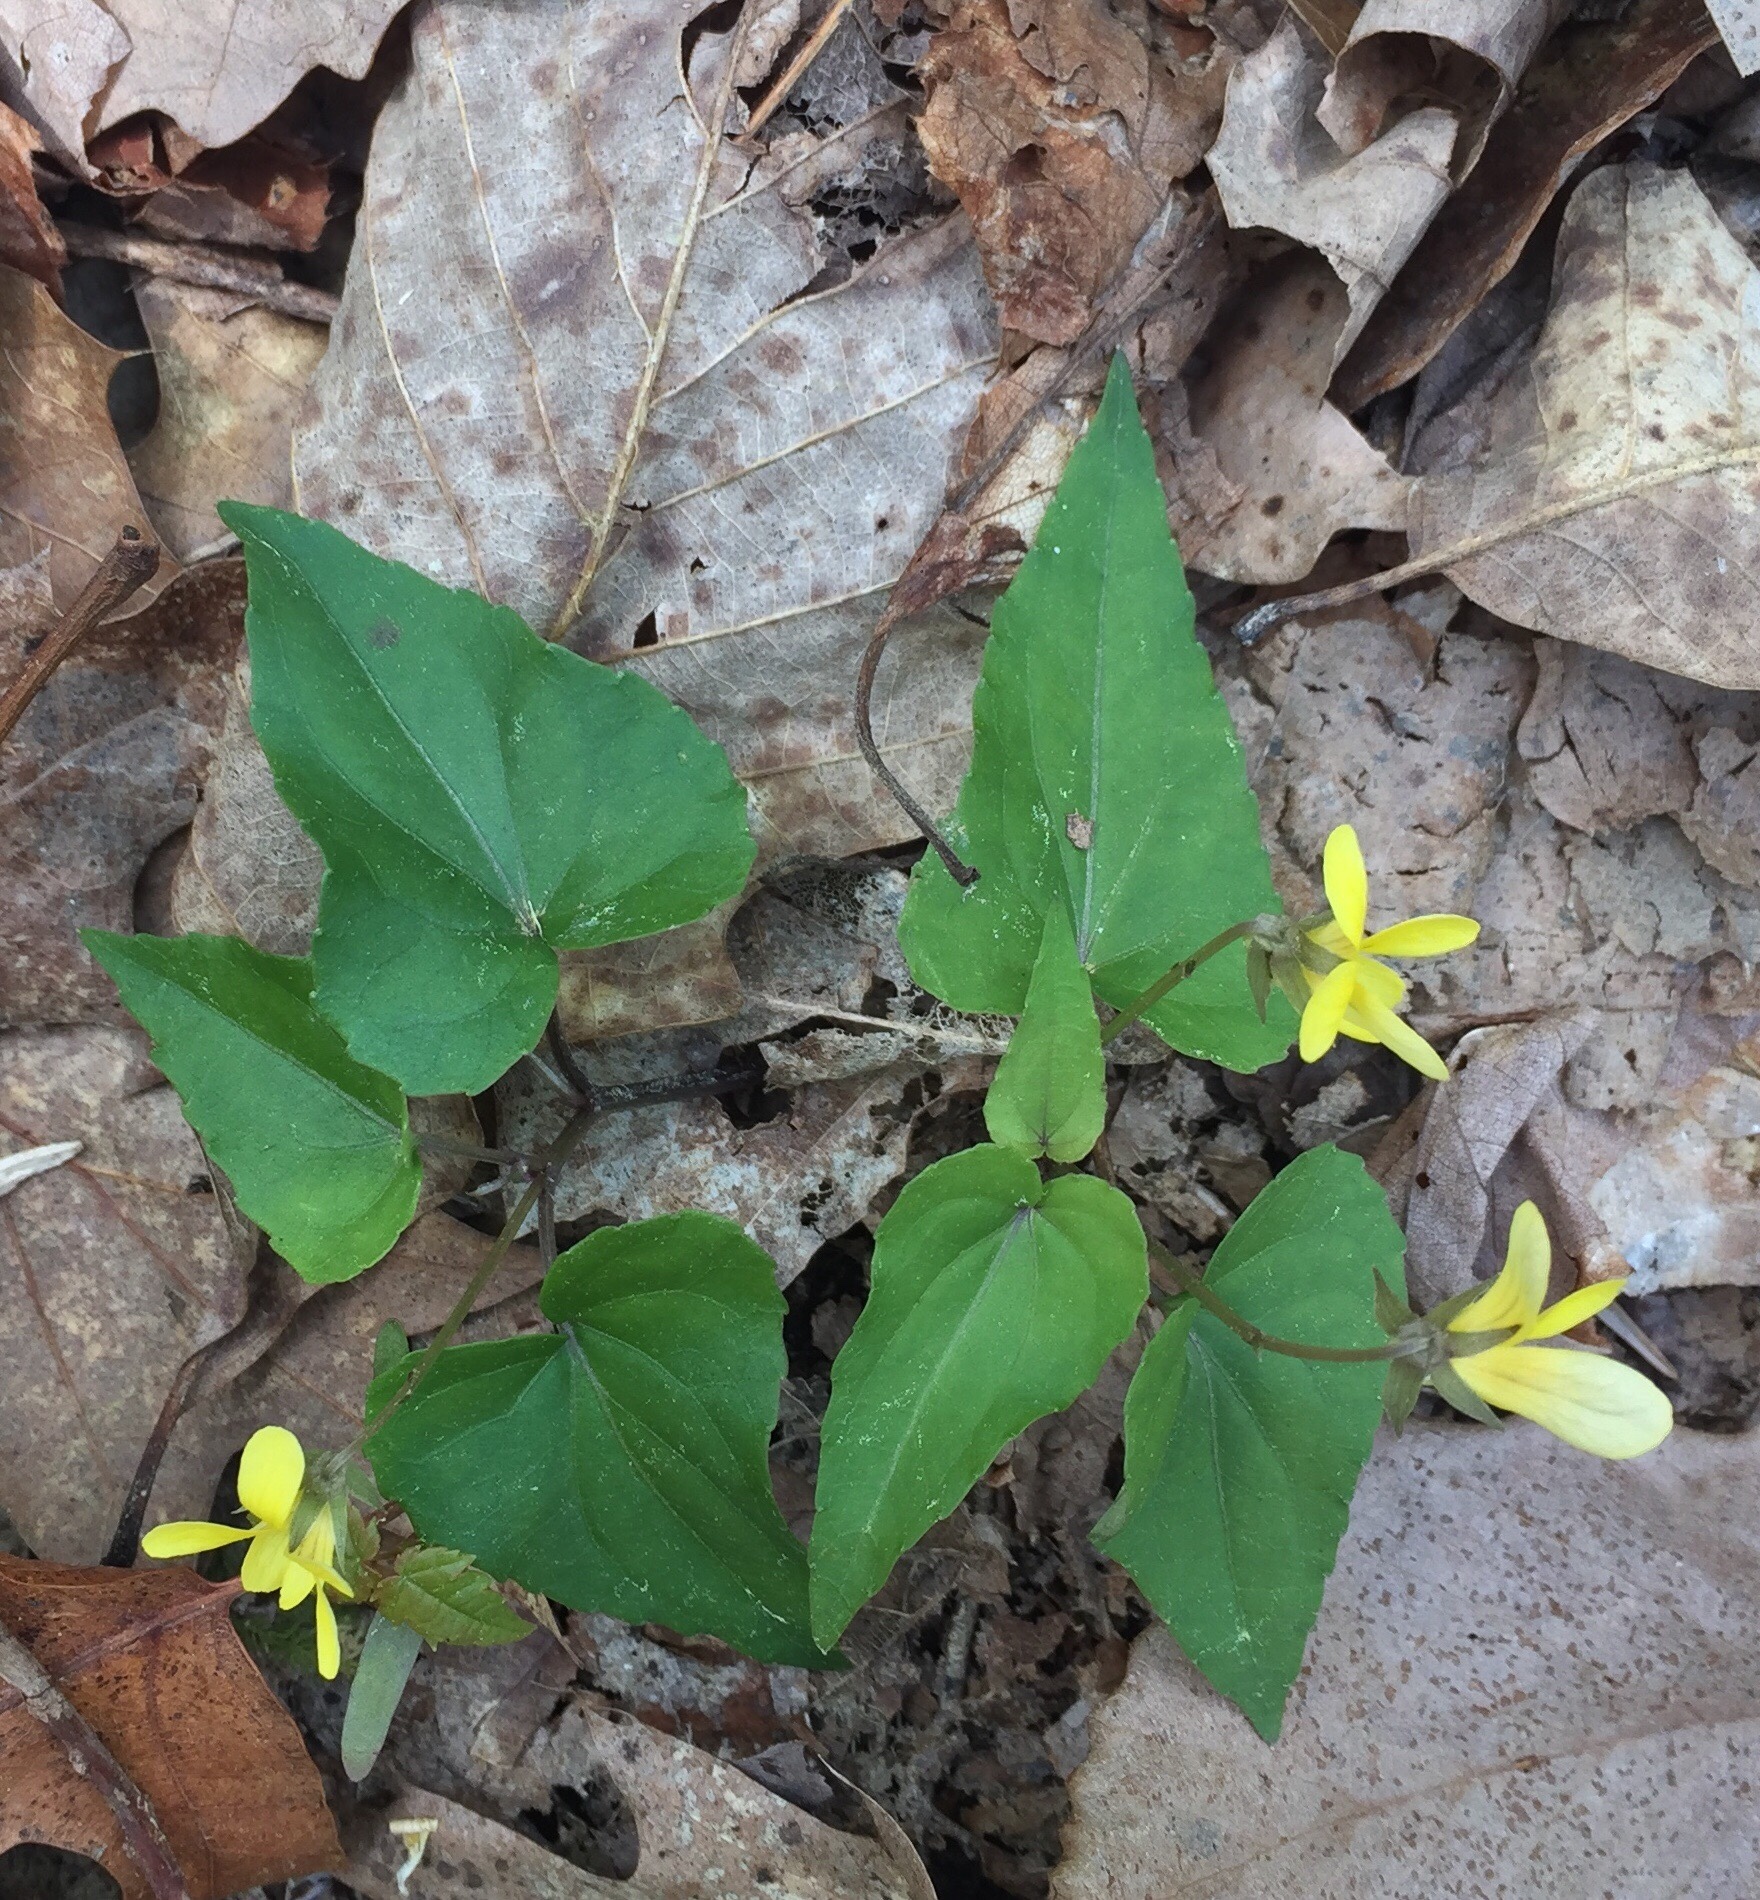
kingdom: Plantae
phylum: Tracheophyta
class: Magnoliopsida
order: Malpighiales
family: Violaceae
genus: Viola
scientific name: Viola hastata
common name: Spear-leaf violet
